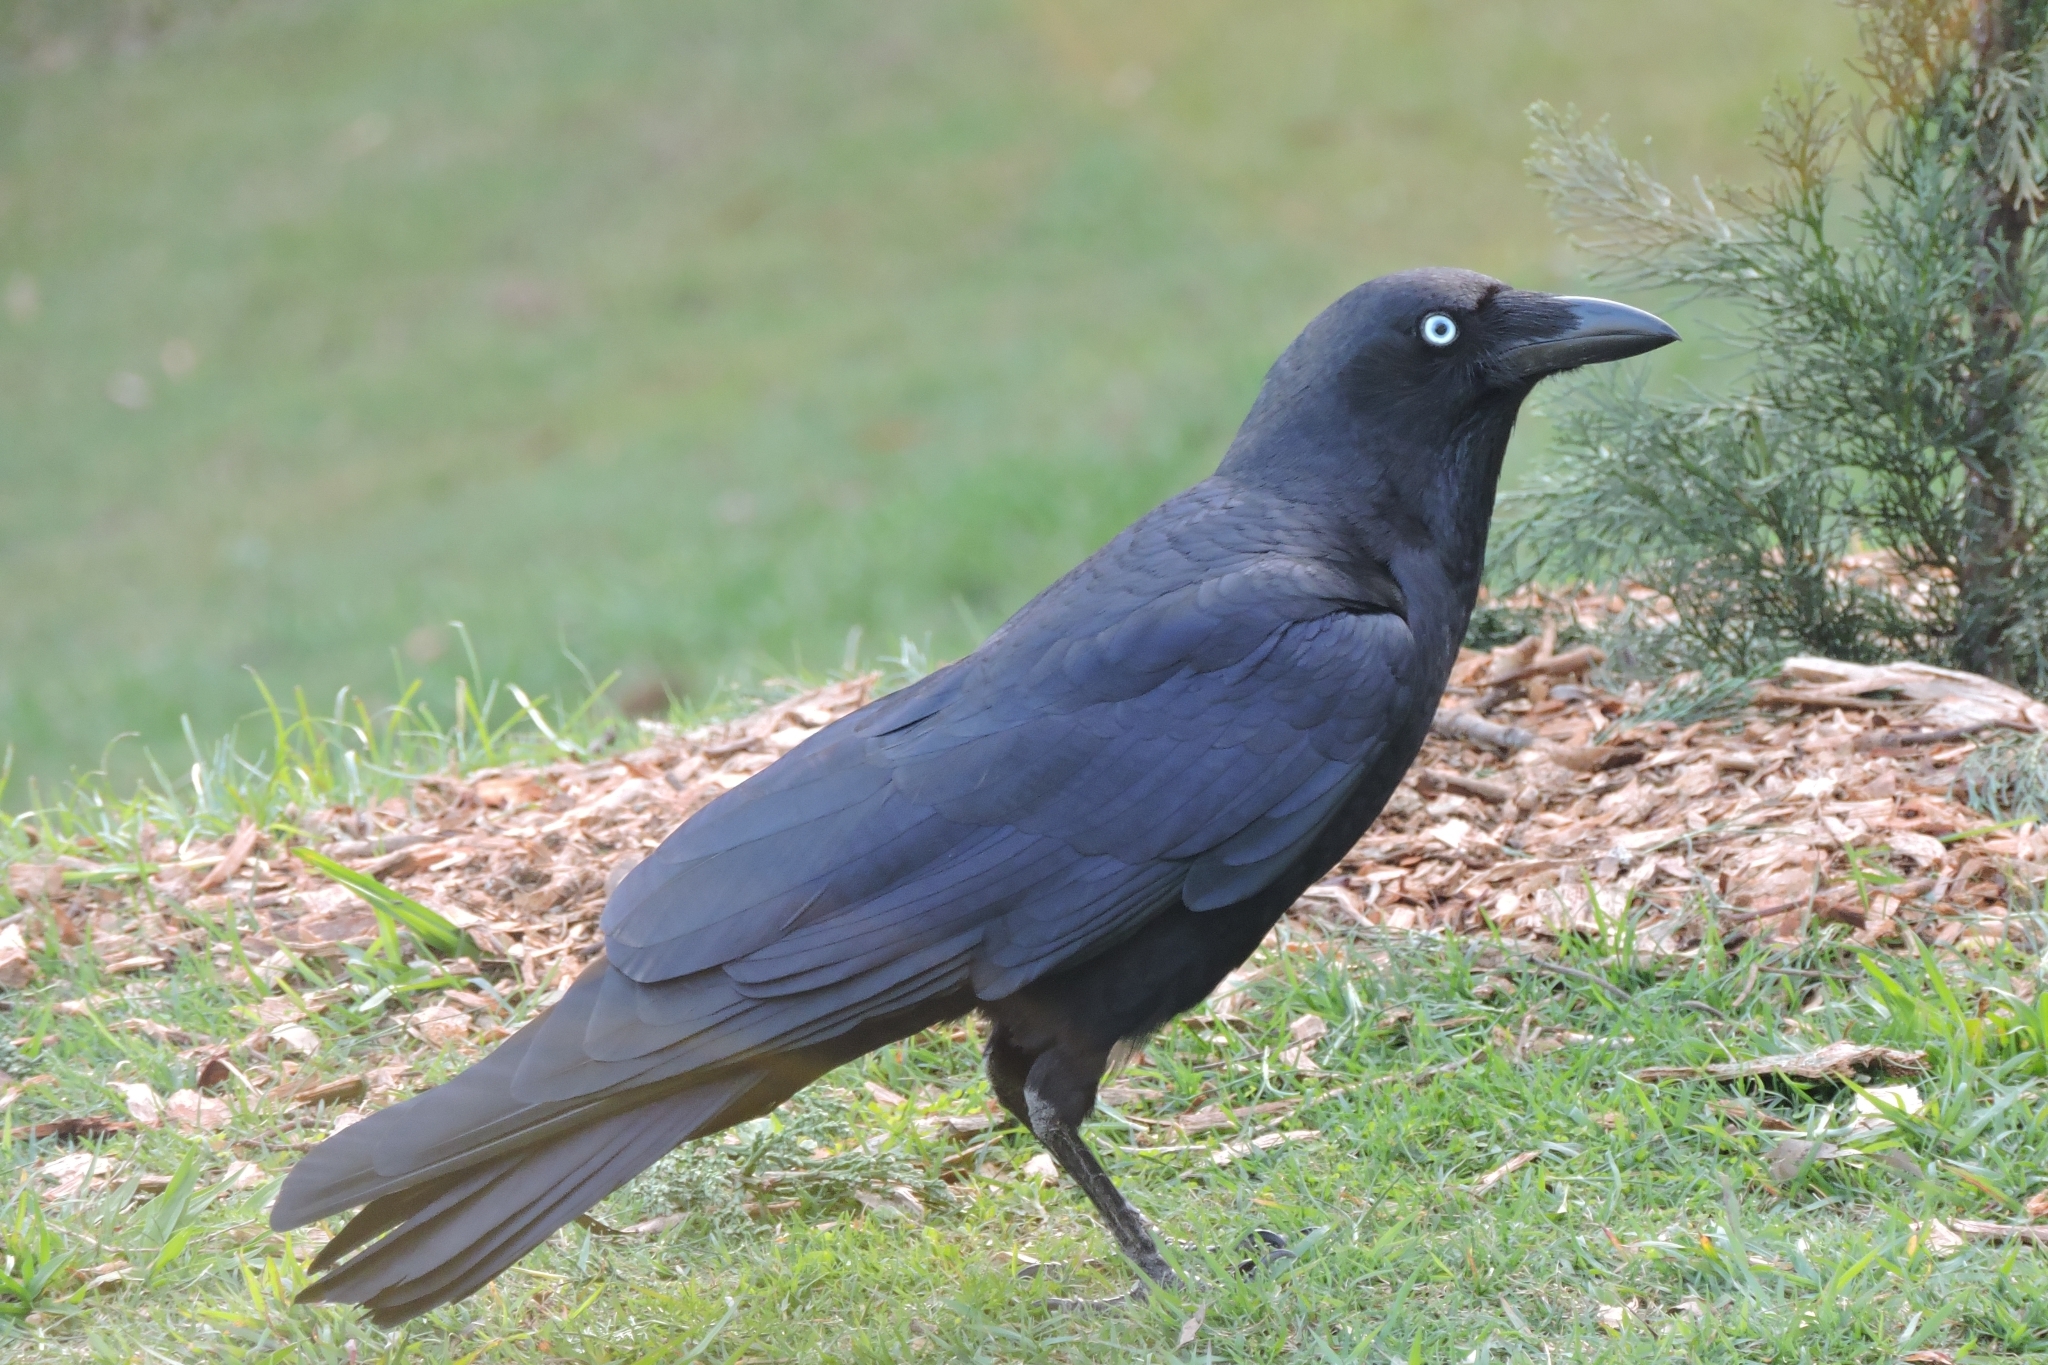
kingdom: Animalia
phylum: Chordata
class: Aves
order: Passeriformes
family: Corvidae
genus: Corvus
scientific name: Corvus orru
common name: Torresian crow
